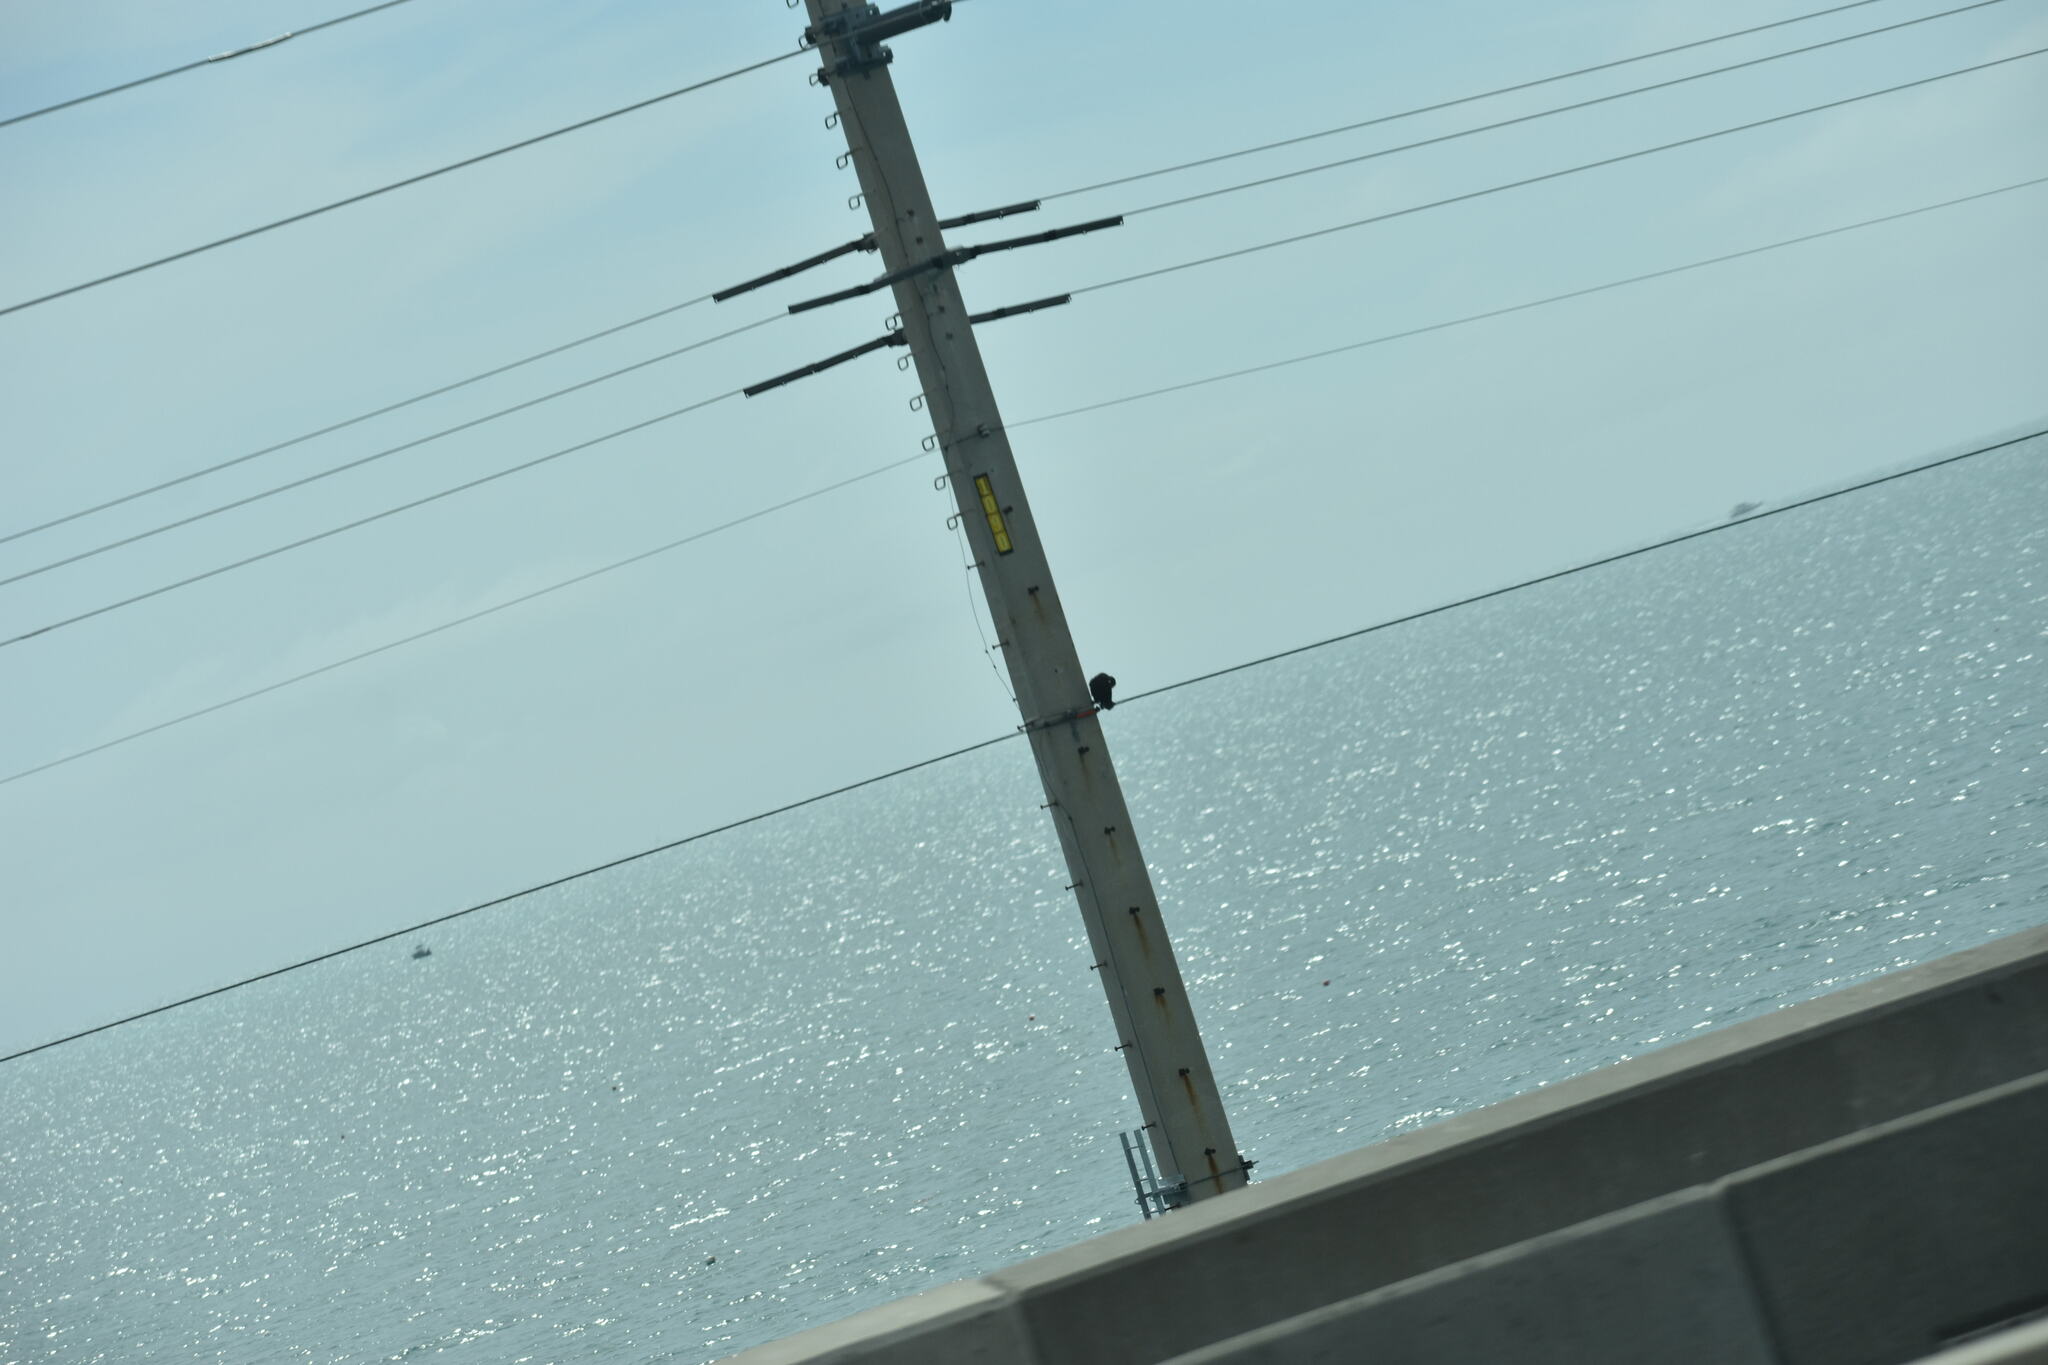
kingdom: Animalia
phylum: Chordata
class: Aves
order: Suliformes
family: Phalacrocoracidae
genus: Phalacrocorax
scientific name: Phalacrocorax auritus
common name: Double-crested cormorant
